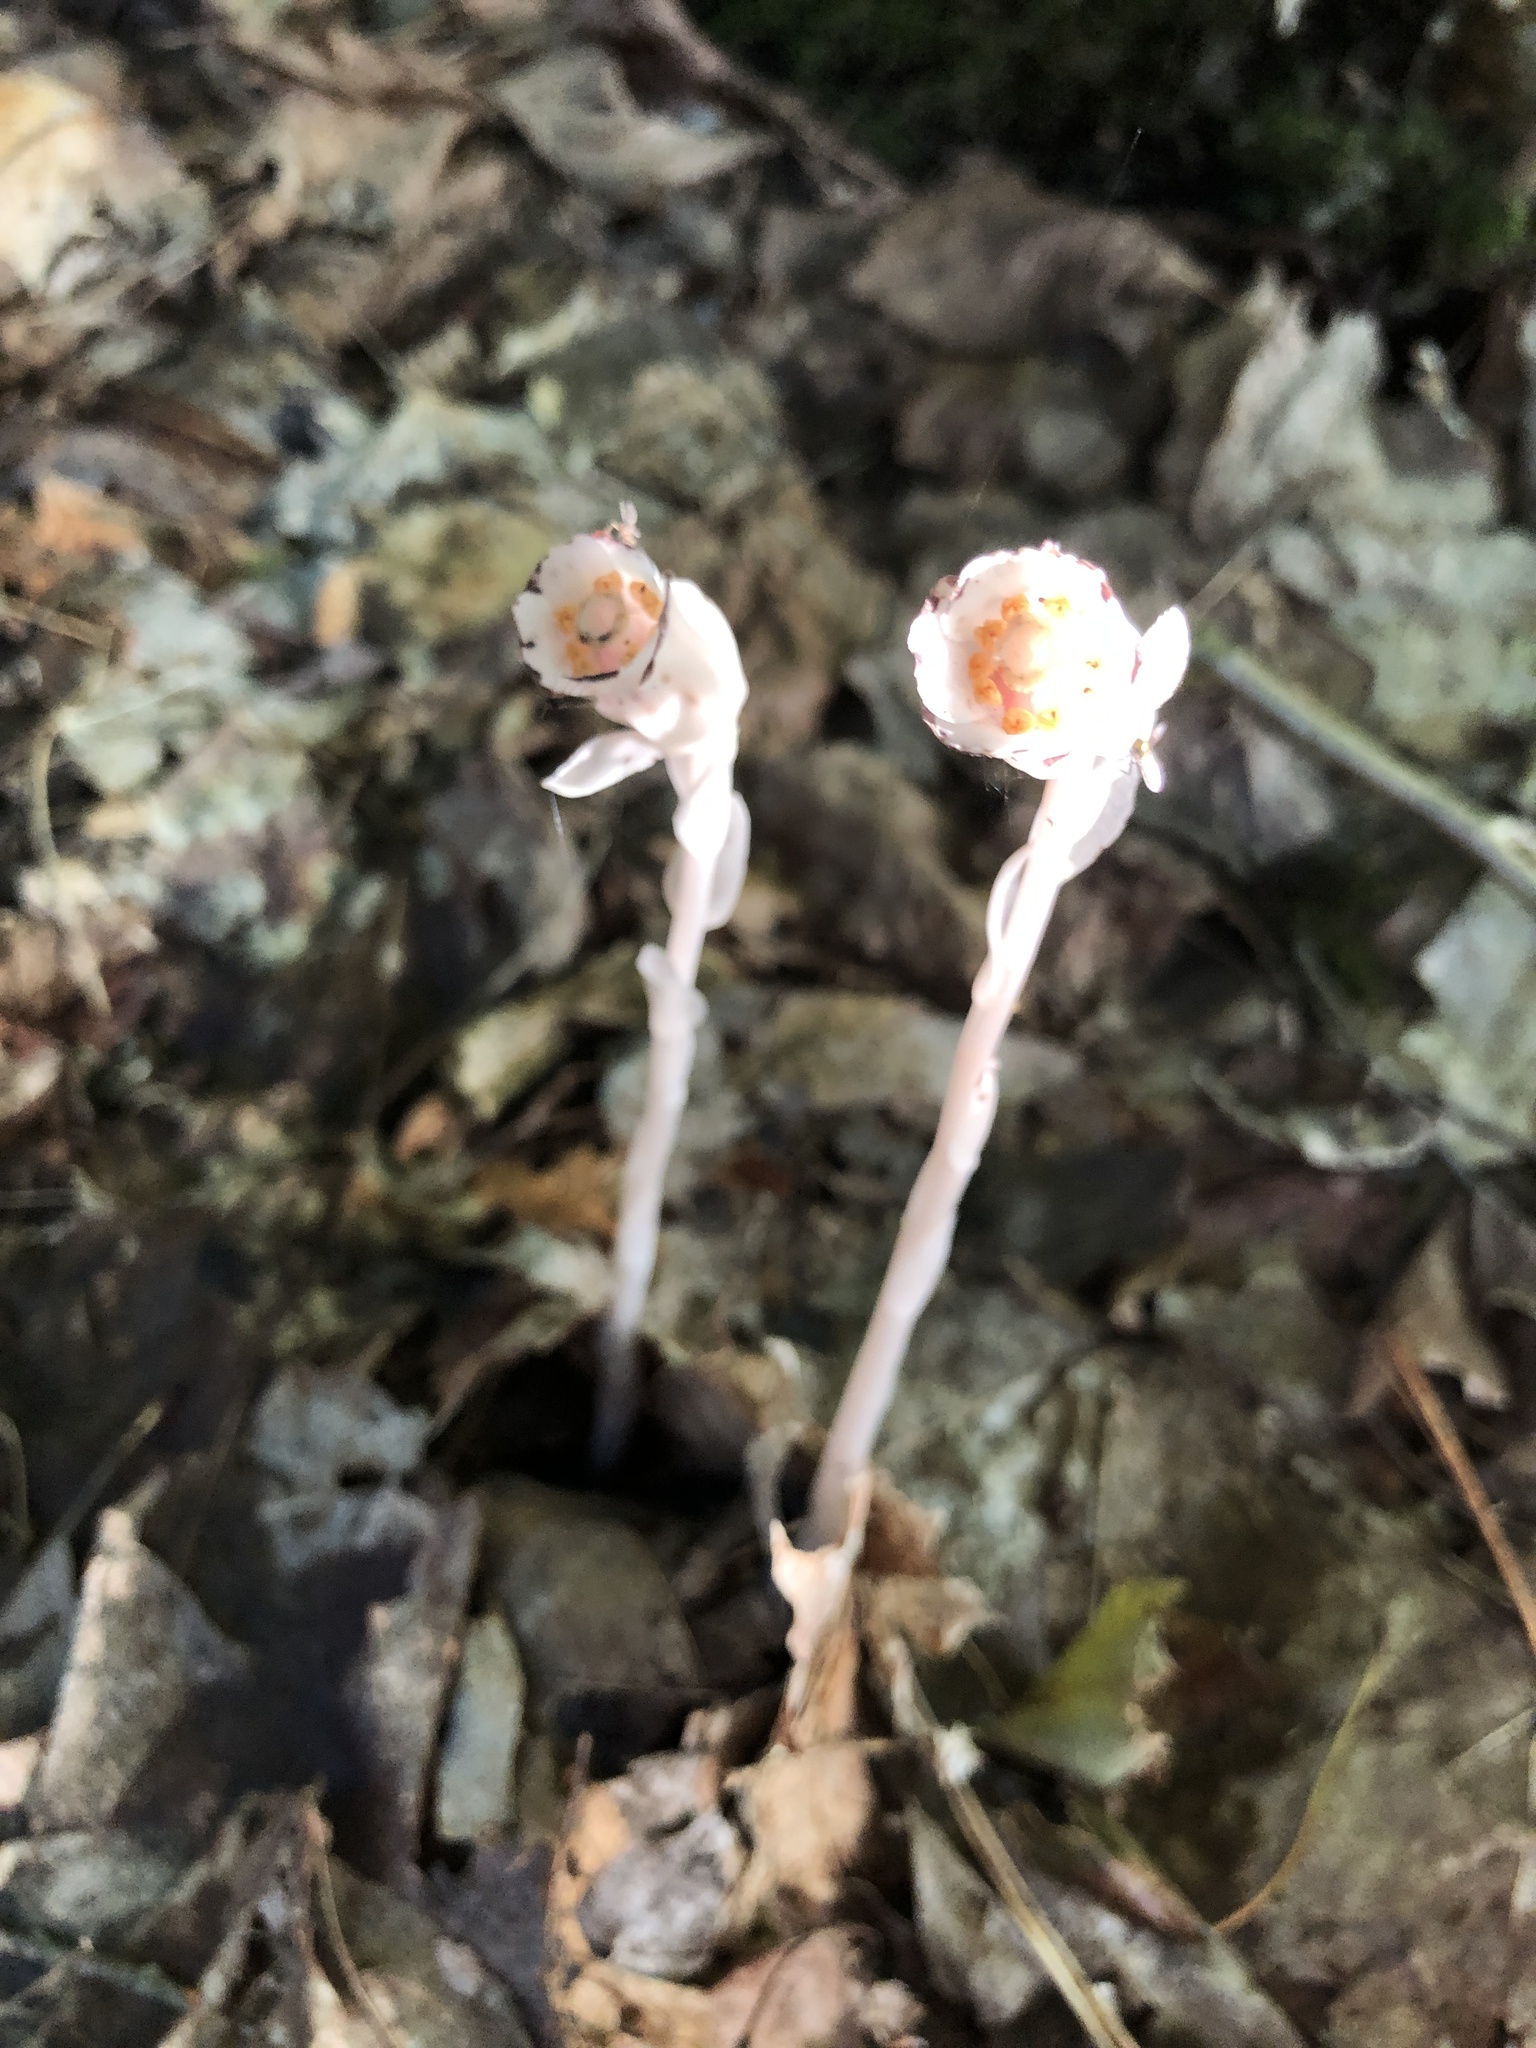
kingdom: Plantae
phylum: Tracheophyta
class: Magnoliopsida
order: Ericales
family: Ericaceae
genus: Monotropa
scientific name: Monotropa uniflora
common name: Convulsion root
